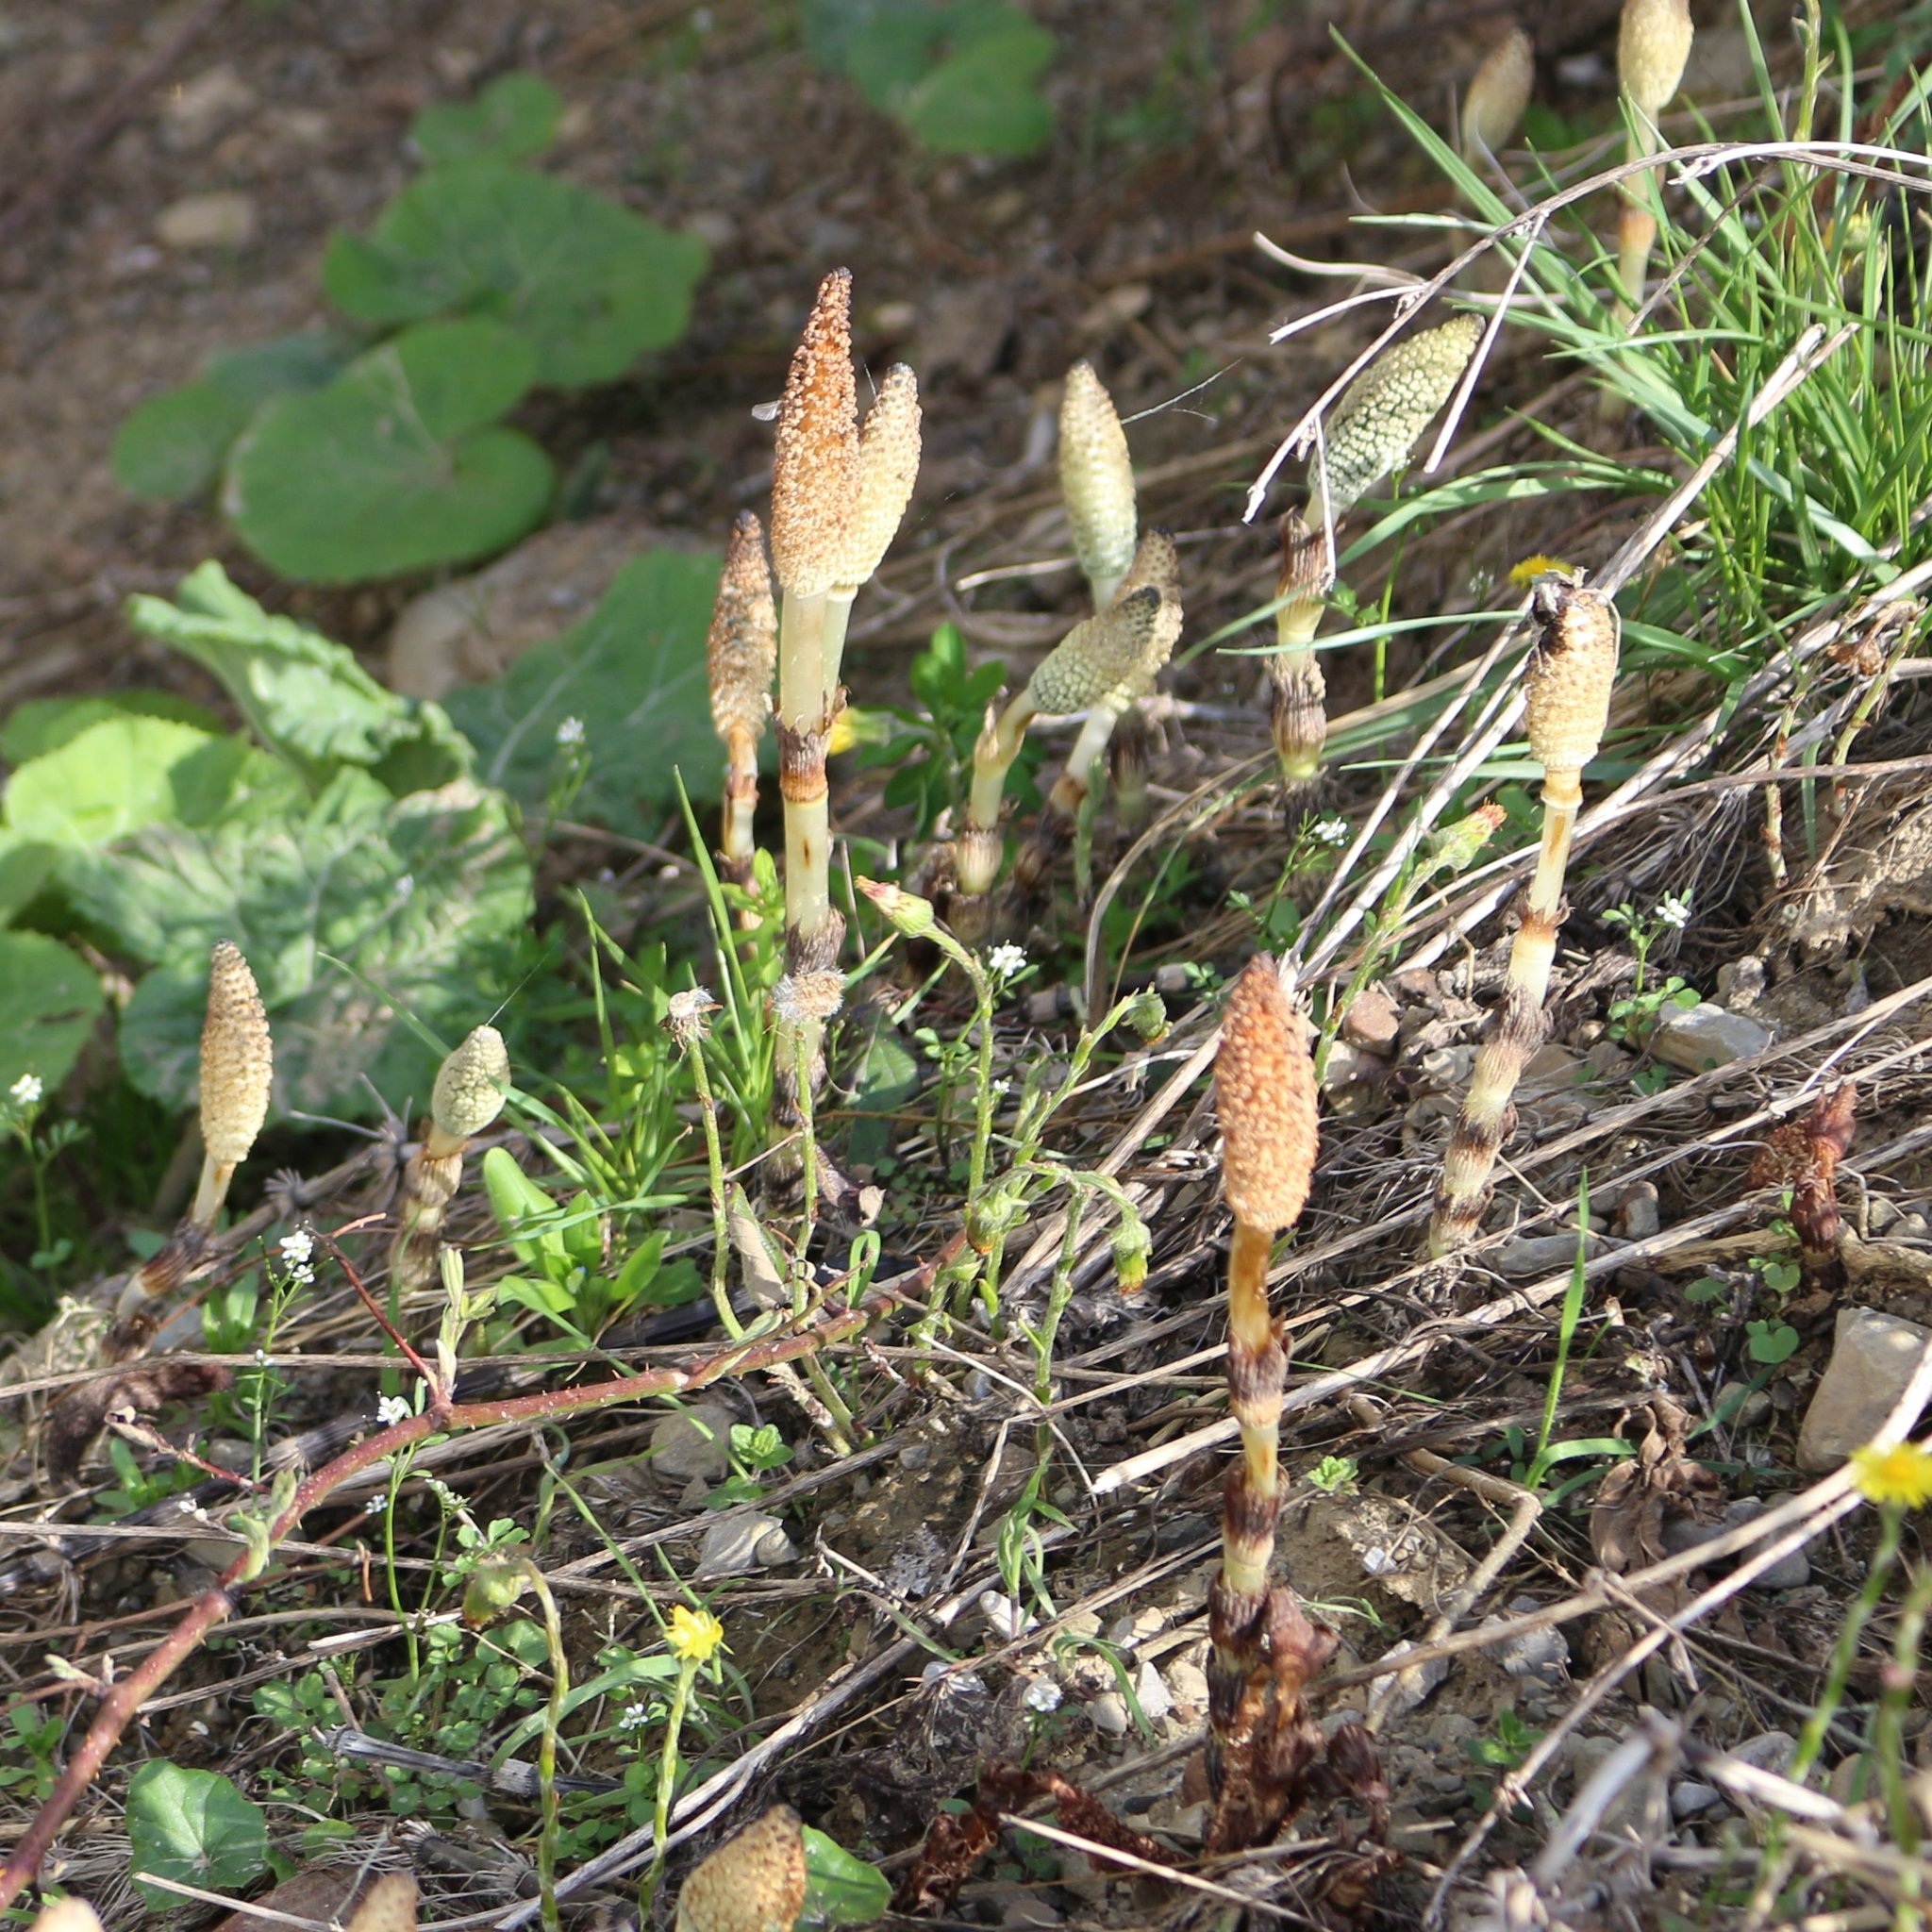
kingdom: Plantae
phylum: Tracheophyta
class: Polypodiopsida
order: Equisetales
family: Equisetaceae
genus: Equisetum
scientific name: Equisetum telmateia
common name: Great horsetail
